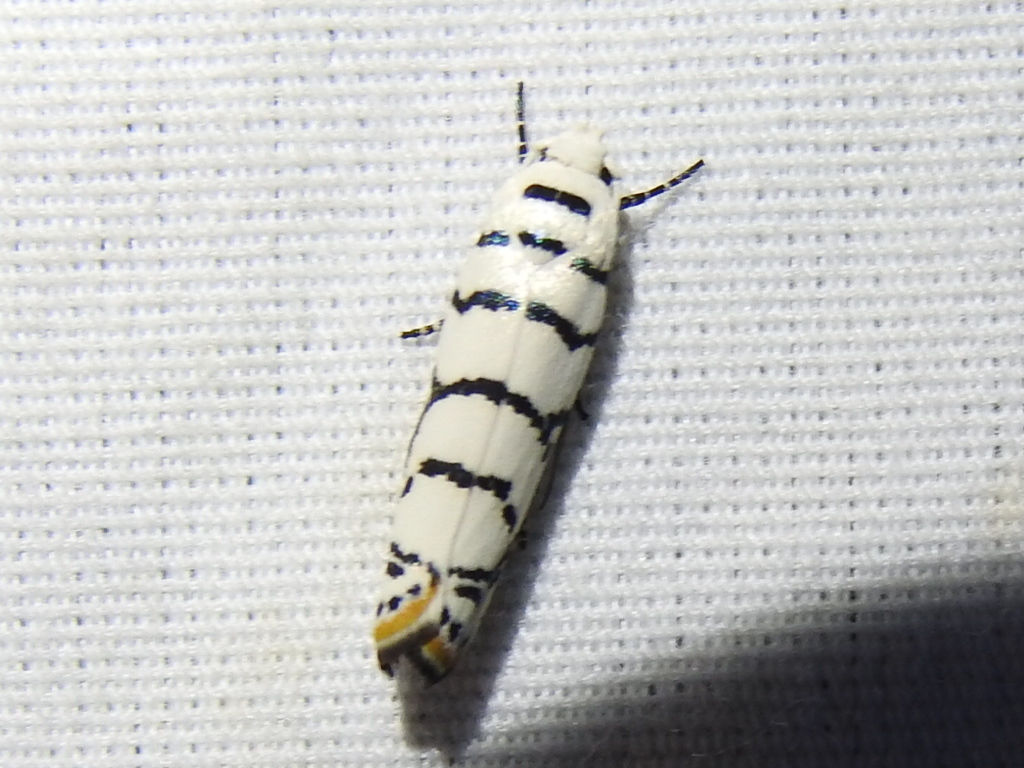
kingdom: Animalia
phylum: Arthropoda
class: Insecta
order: Lepidoptera
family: Ethmiidae
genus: Ethmia
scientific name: Ethmia delliella
